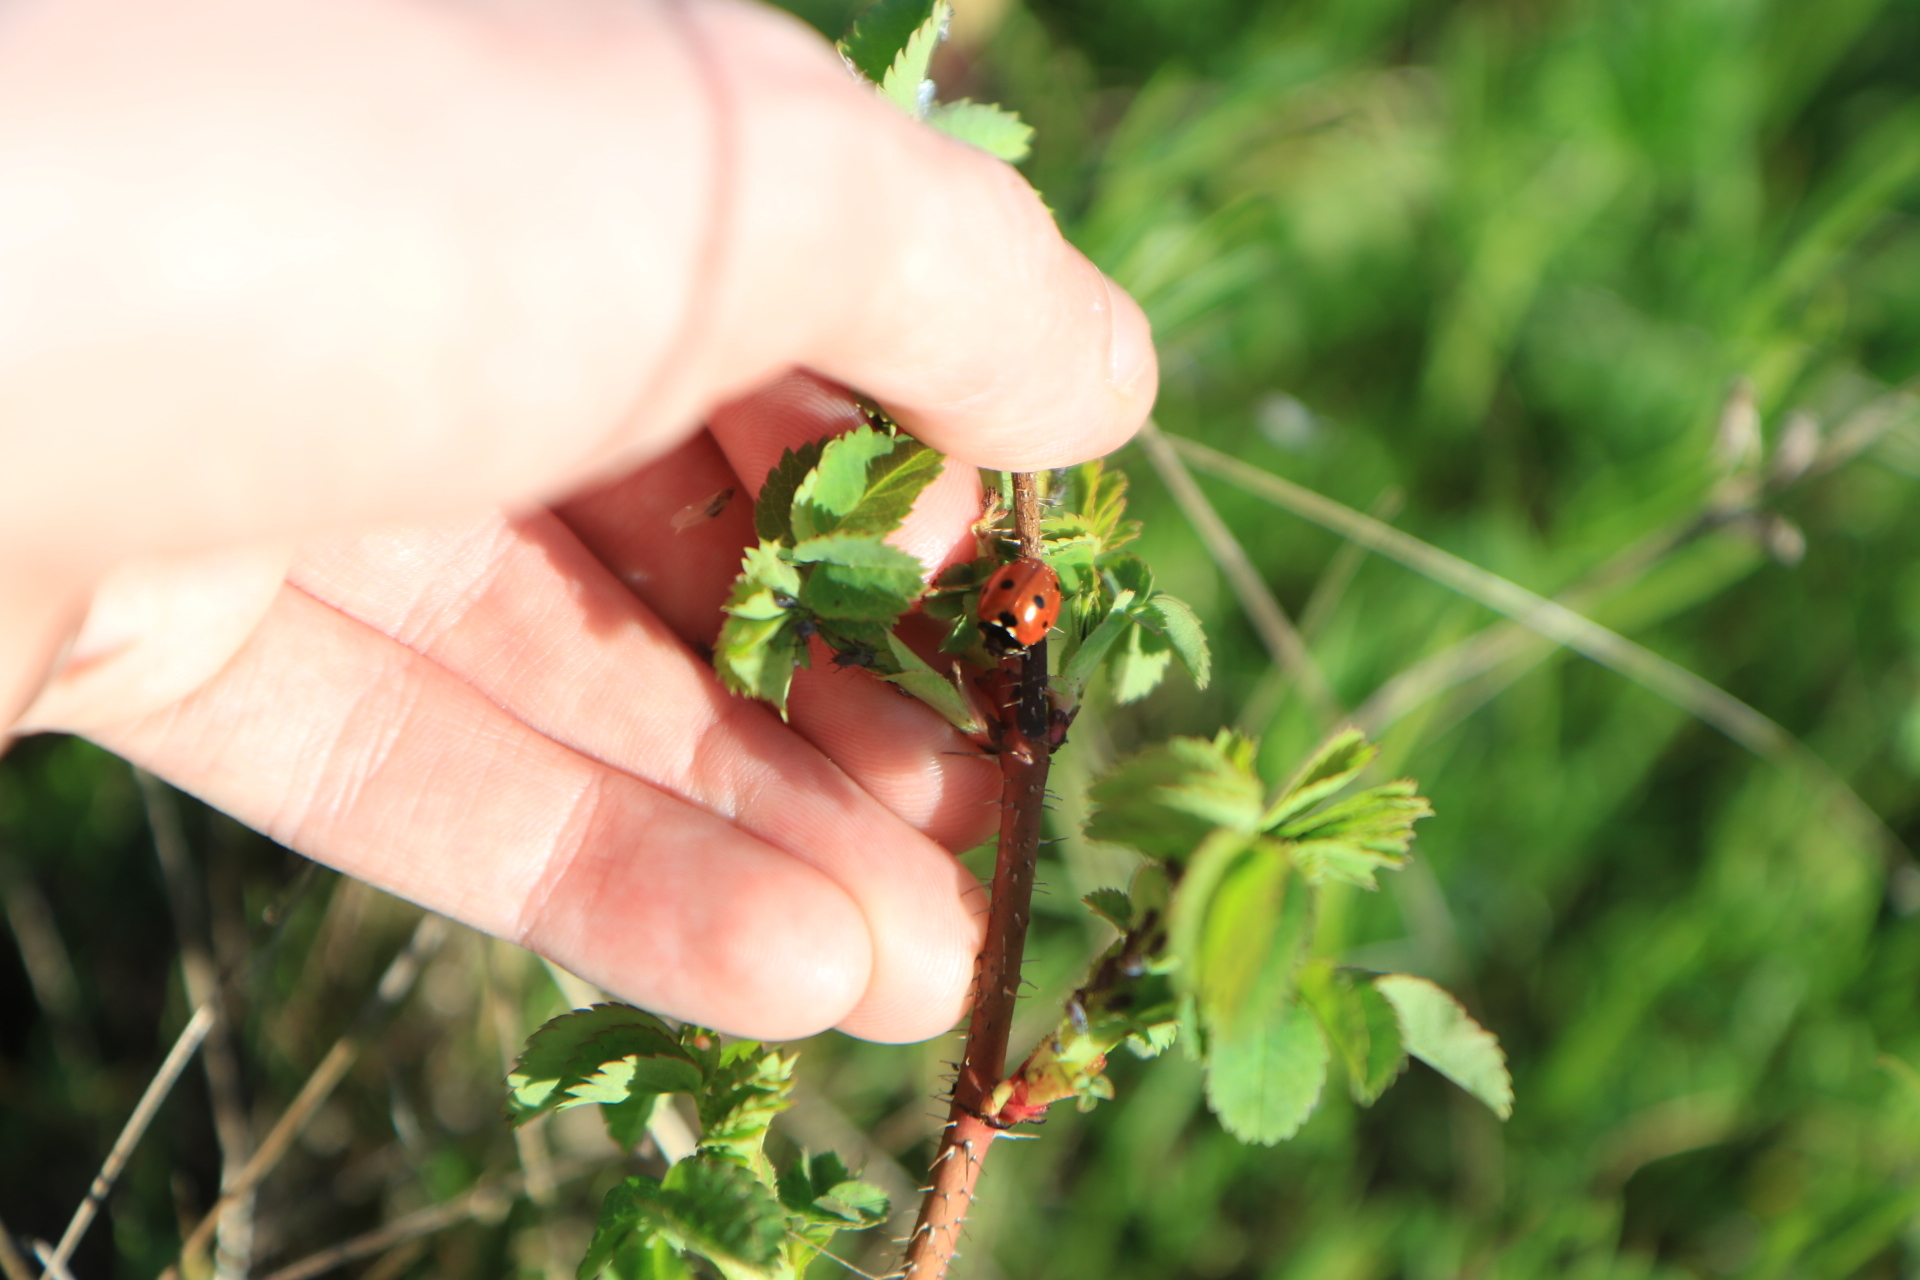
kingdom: Animalia
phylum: Arthropoda
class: Insecta
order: Coleoptera
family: Coccinellidae
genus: Coccinella
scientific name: Coccinella septempunctata
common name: Sevenspotted lady beetle
